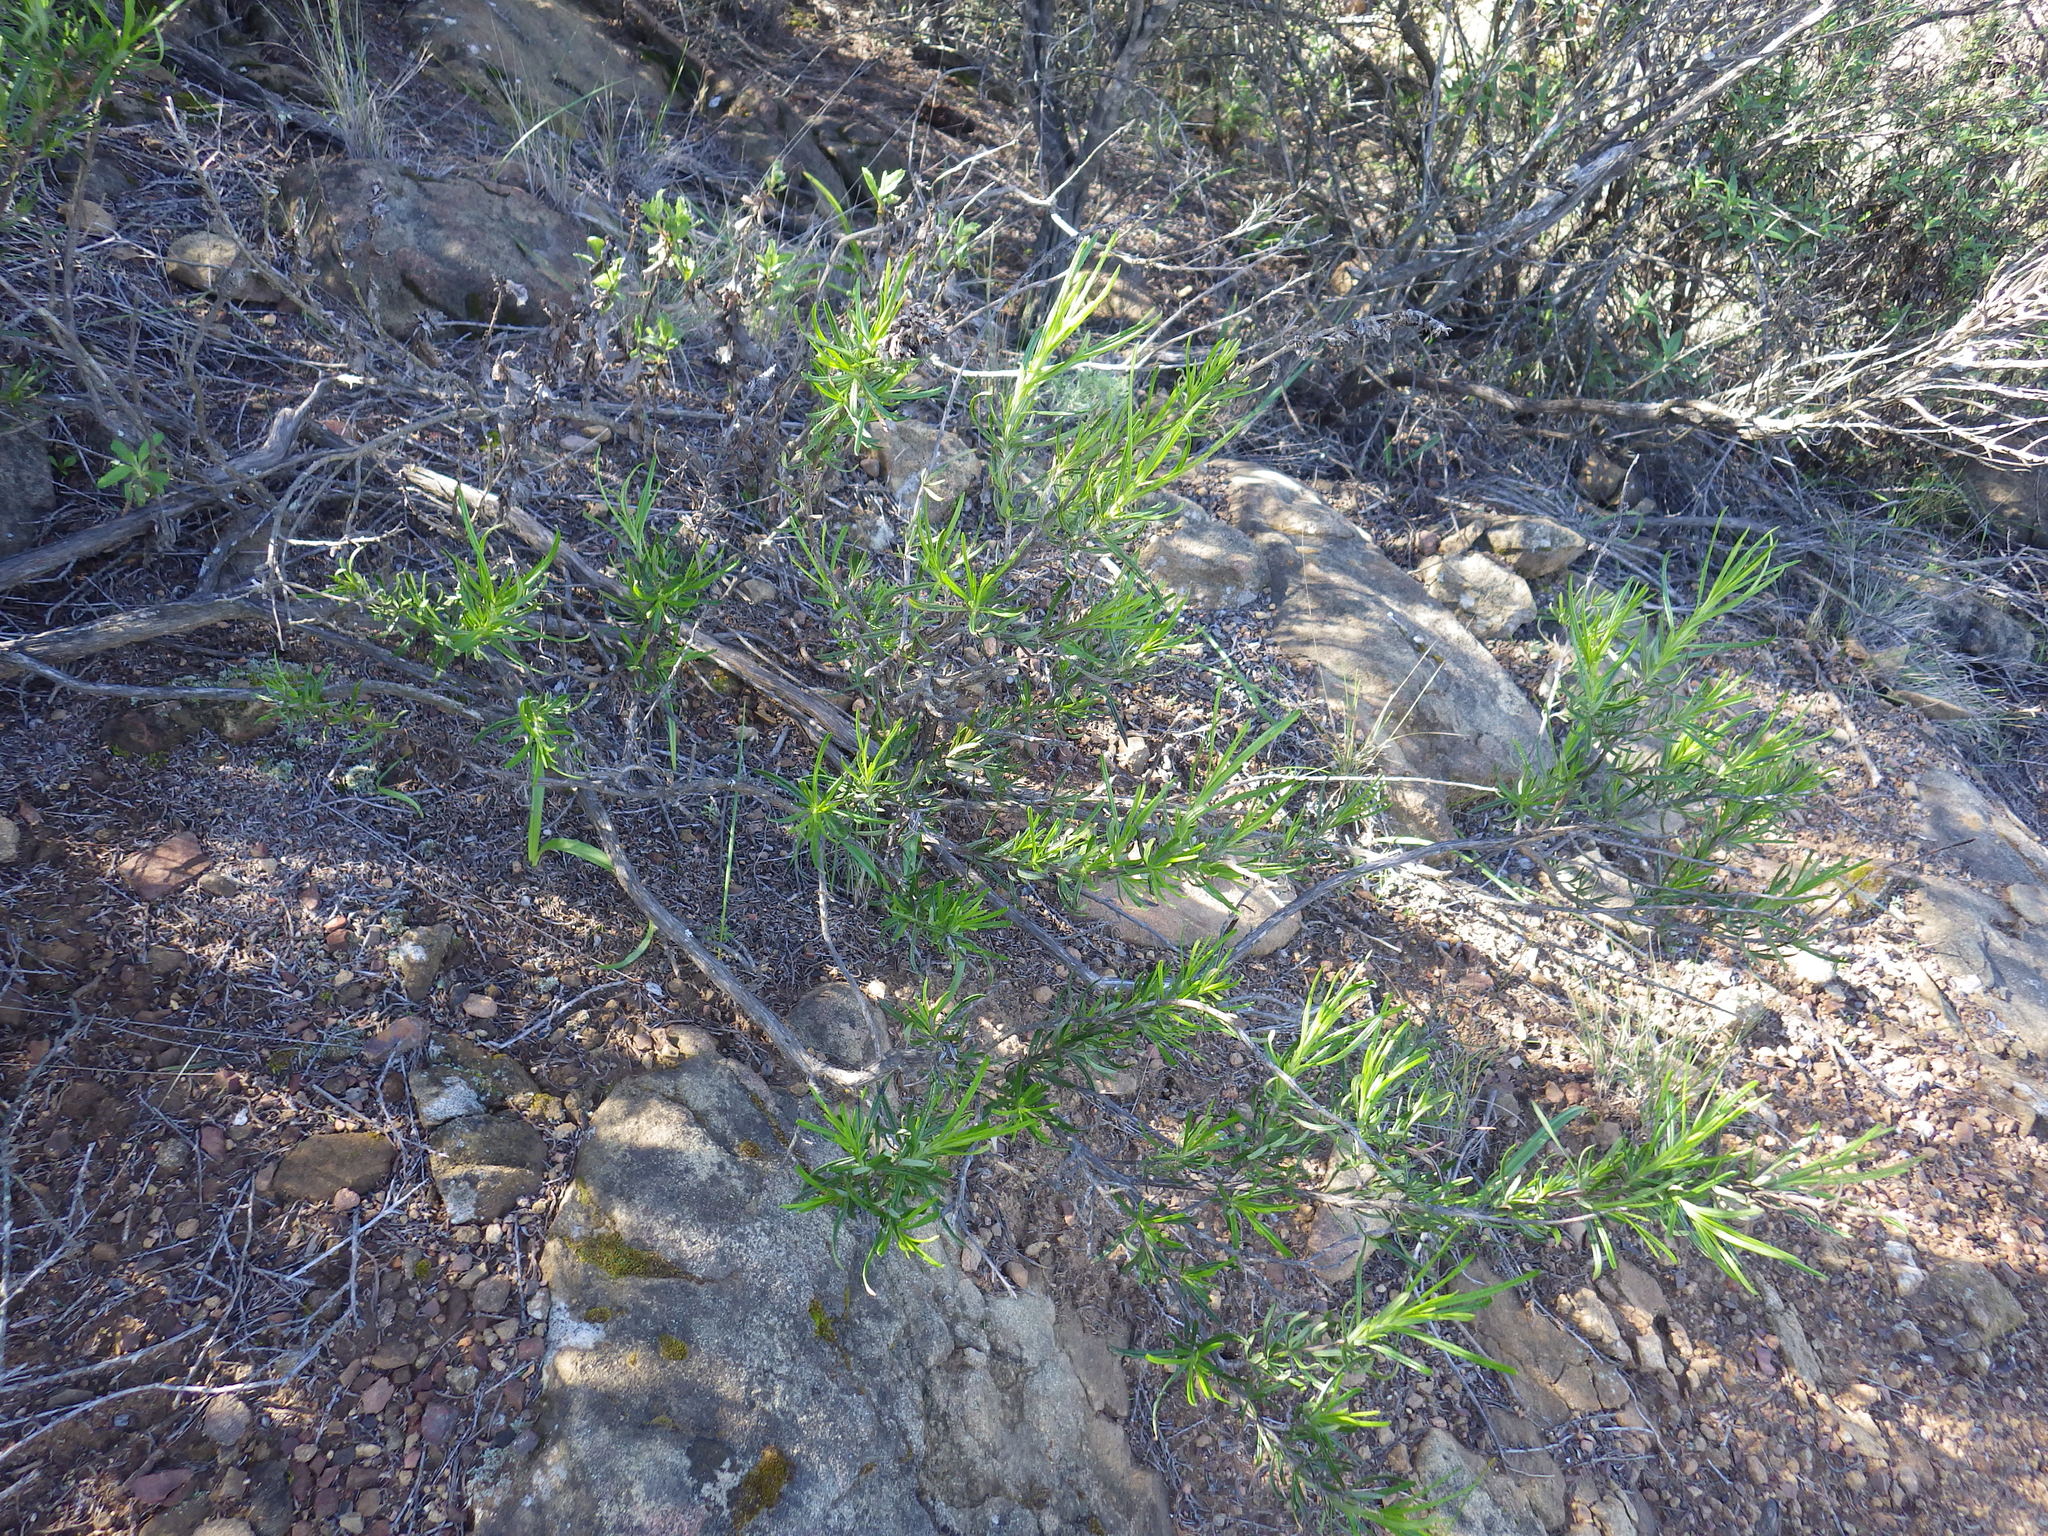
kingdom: Plantae
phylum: Tracheophyta
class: Magnoliopsida
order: Lamiales
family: Lamiaceae
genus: Trichostema
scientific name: Trichostema lanatum
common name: Woolly bluecurls
